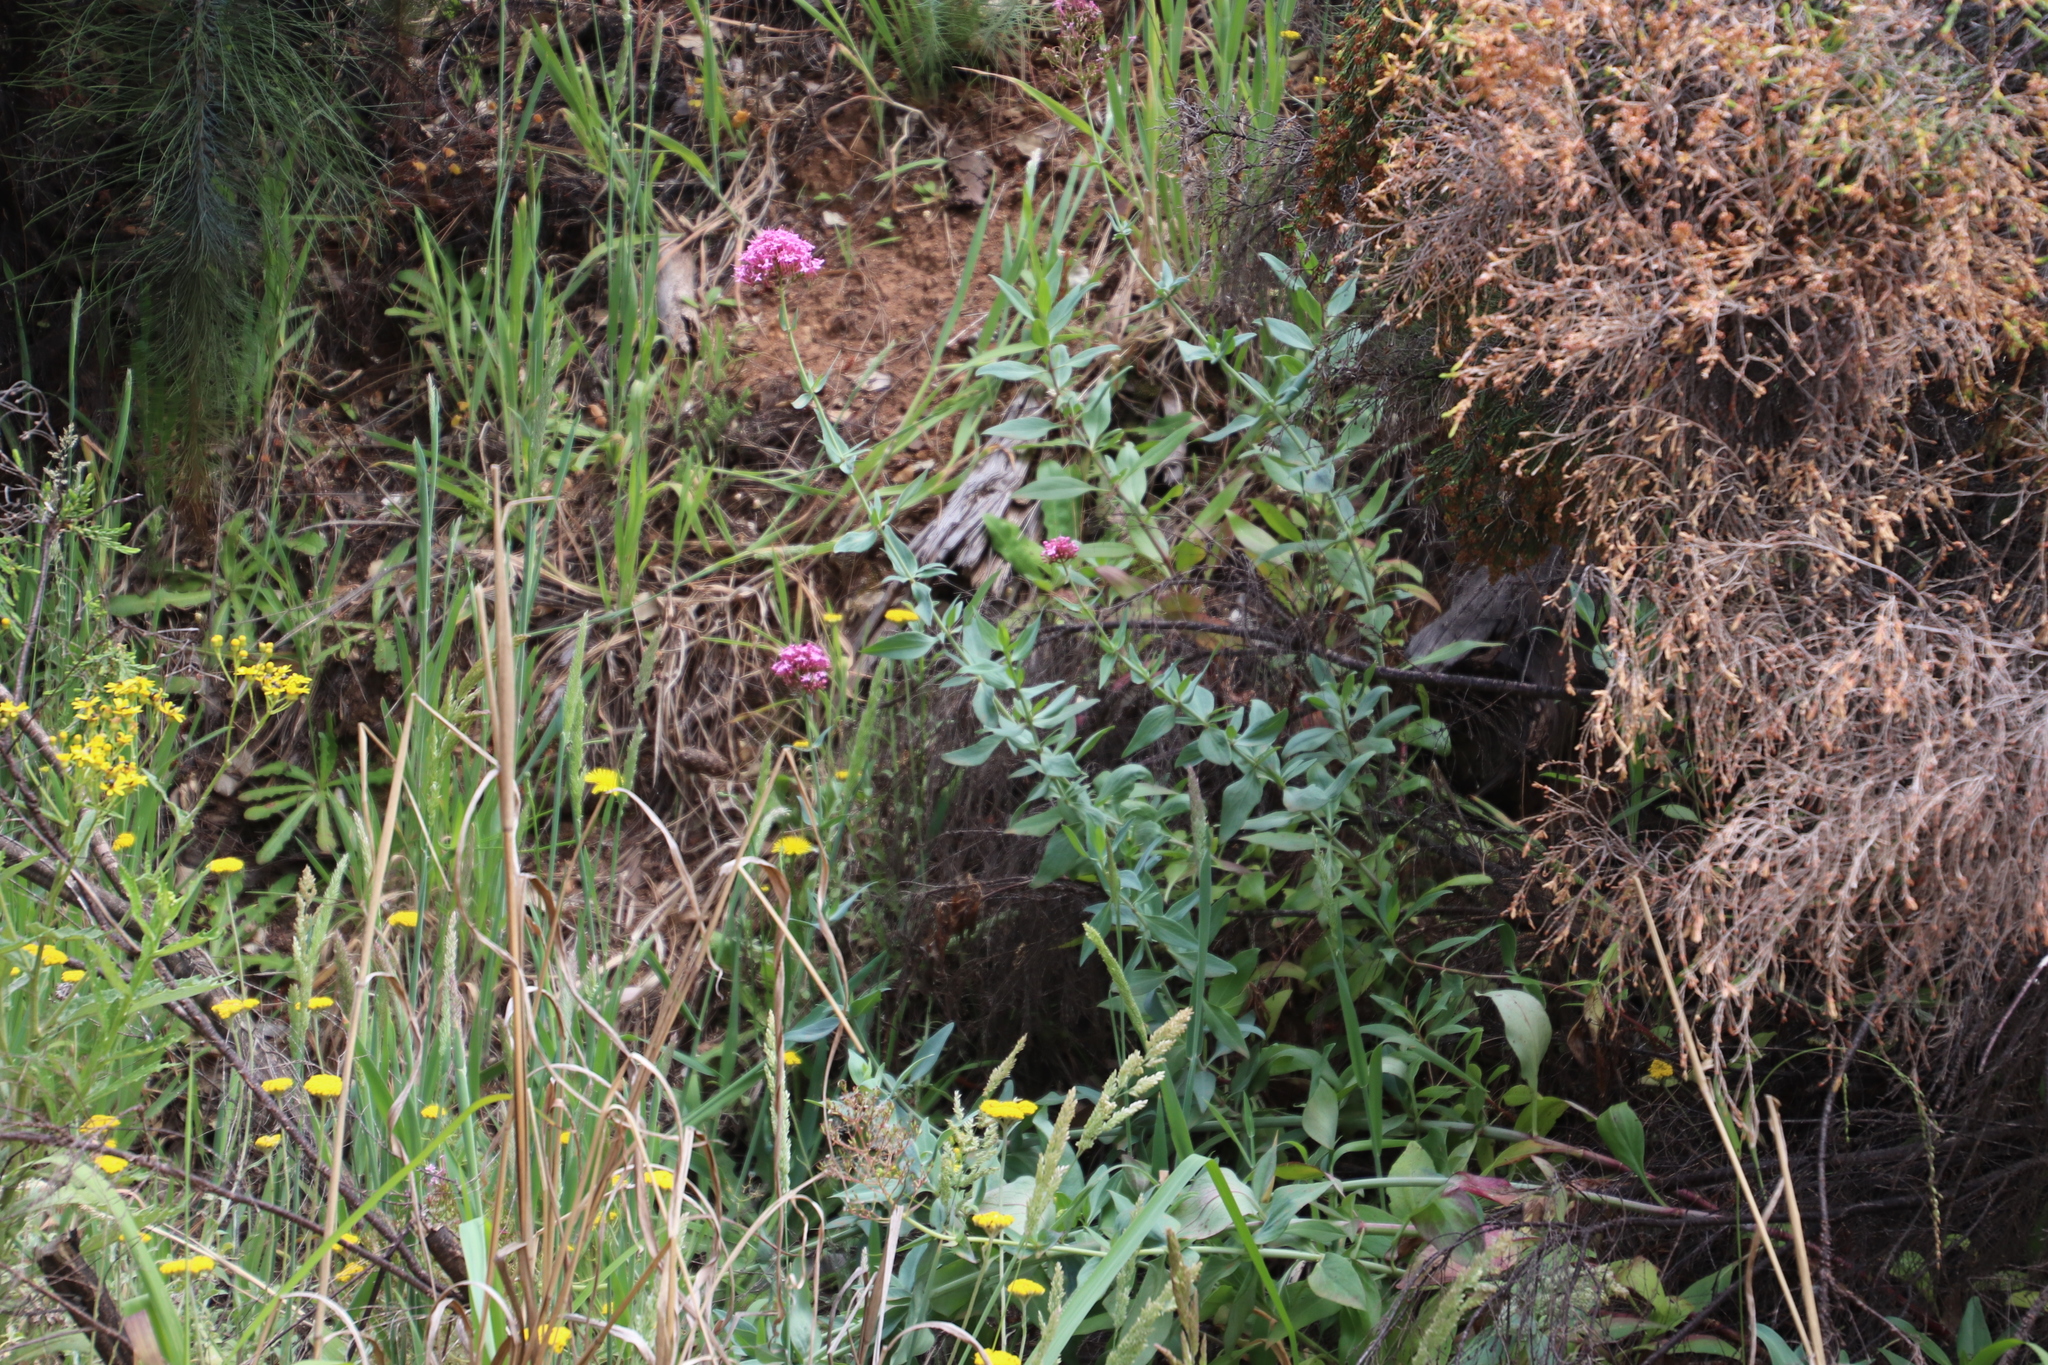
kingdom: Plantae
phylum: Tracheophyta
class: Magnoliopsida
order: Dipsacales
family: Caprifoliaceae
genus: Centranthus
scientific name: Centranthus ruber
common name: Red valerian
